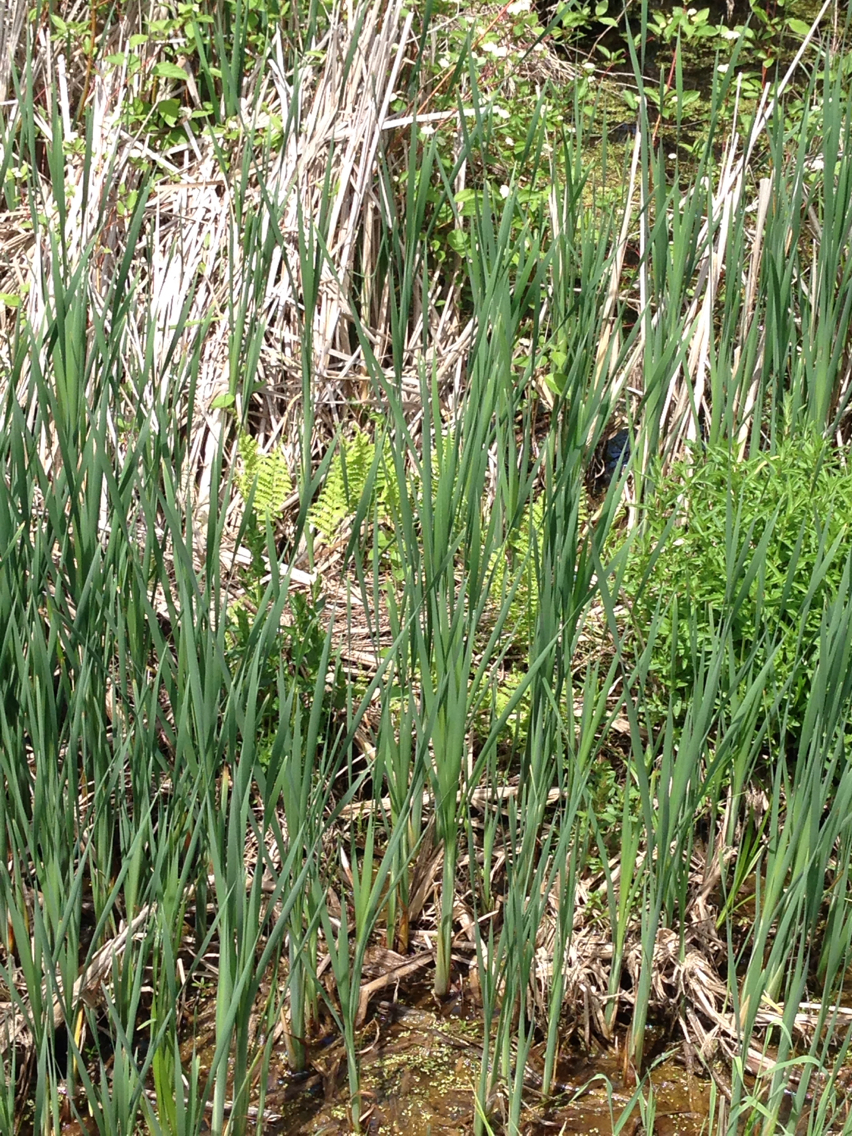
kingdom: Plantae
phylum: Tracheophyta
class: Polypodiopsida
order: Polypodiales
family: Thelypteridaceae
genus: Thelypteris
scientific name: Thelypteris palustris
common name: Marsh fern
